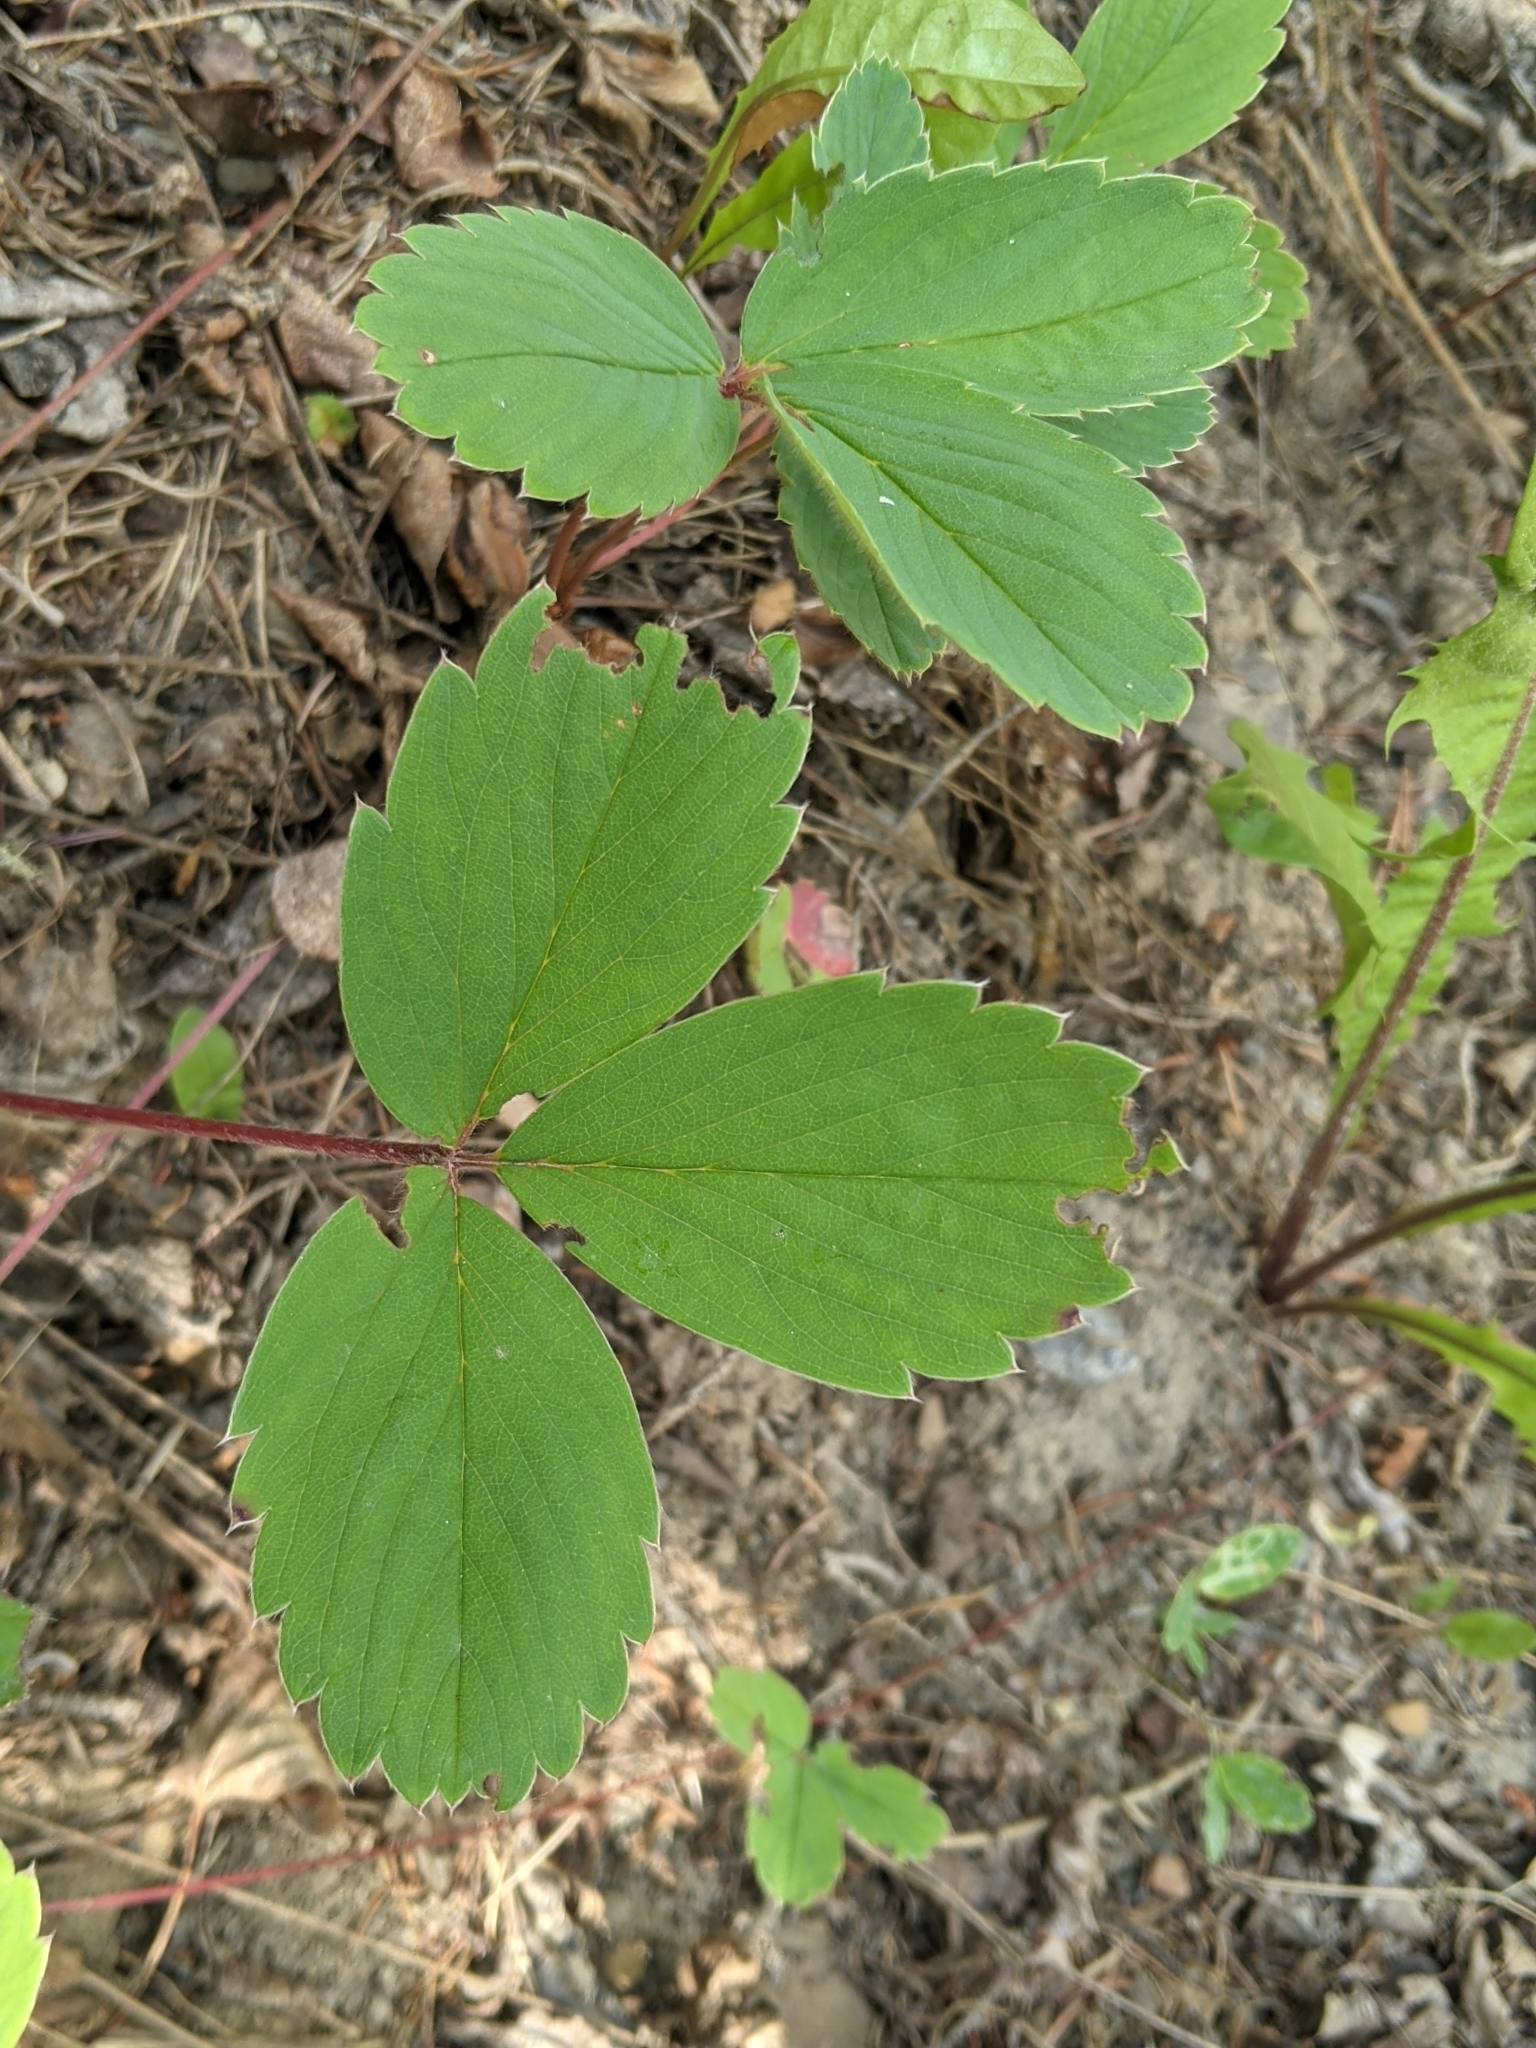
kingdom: Plantae
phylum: Tracheophyta
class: Magnoliopsida
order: Rosales
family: Rosaceae
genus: Fragaria
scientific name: Fragaria virginiana
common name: Thickleaved wild strawberry
